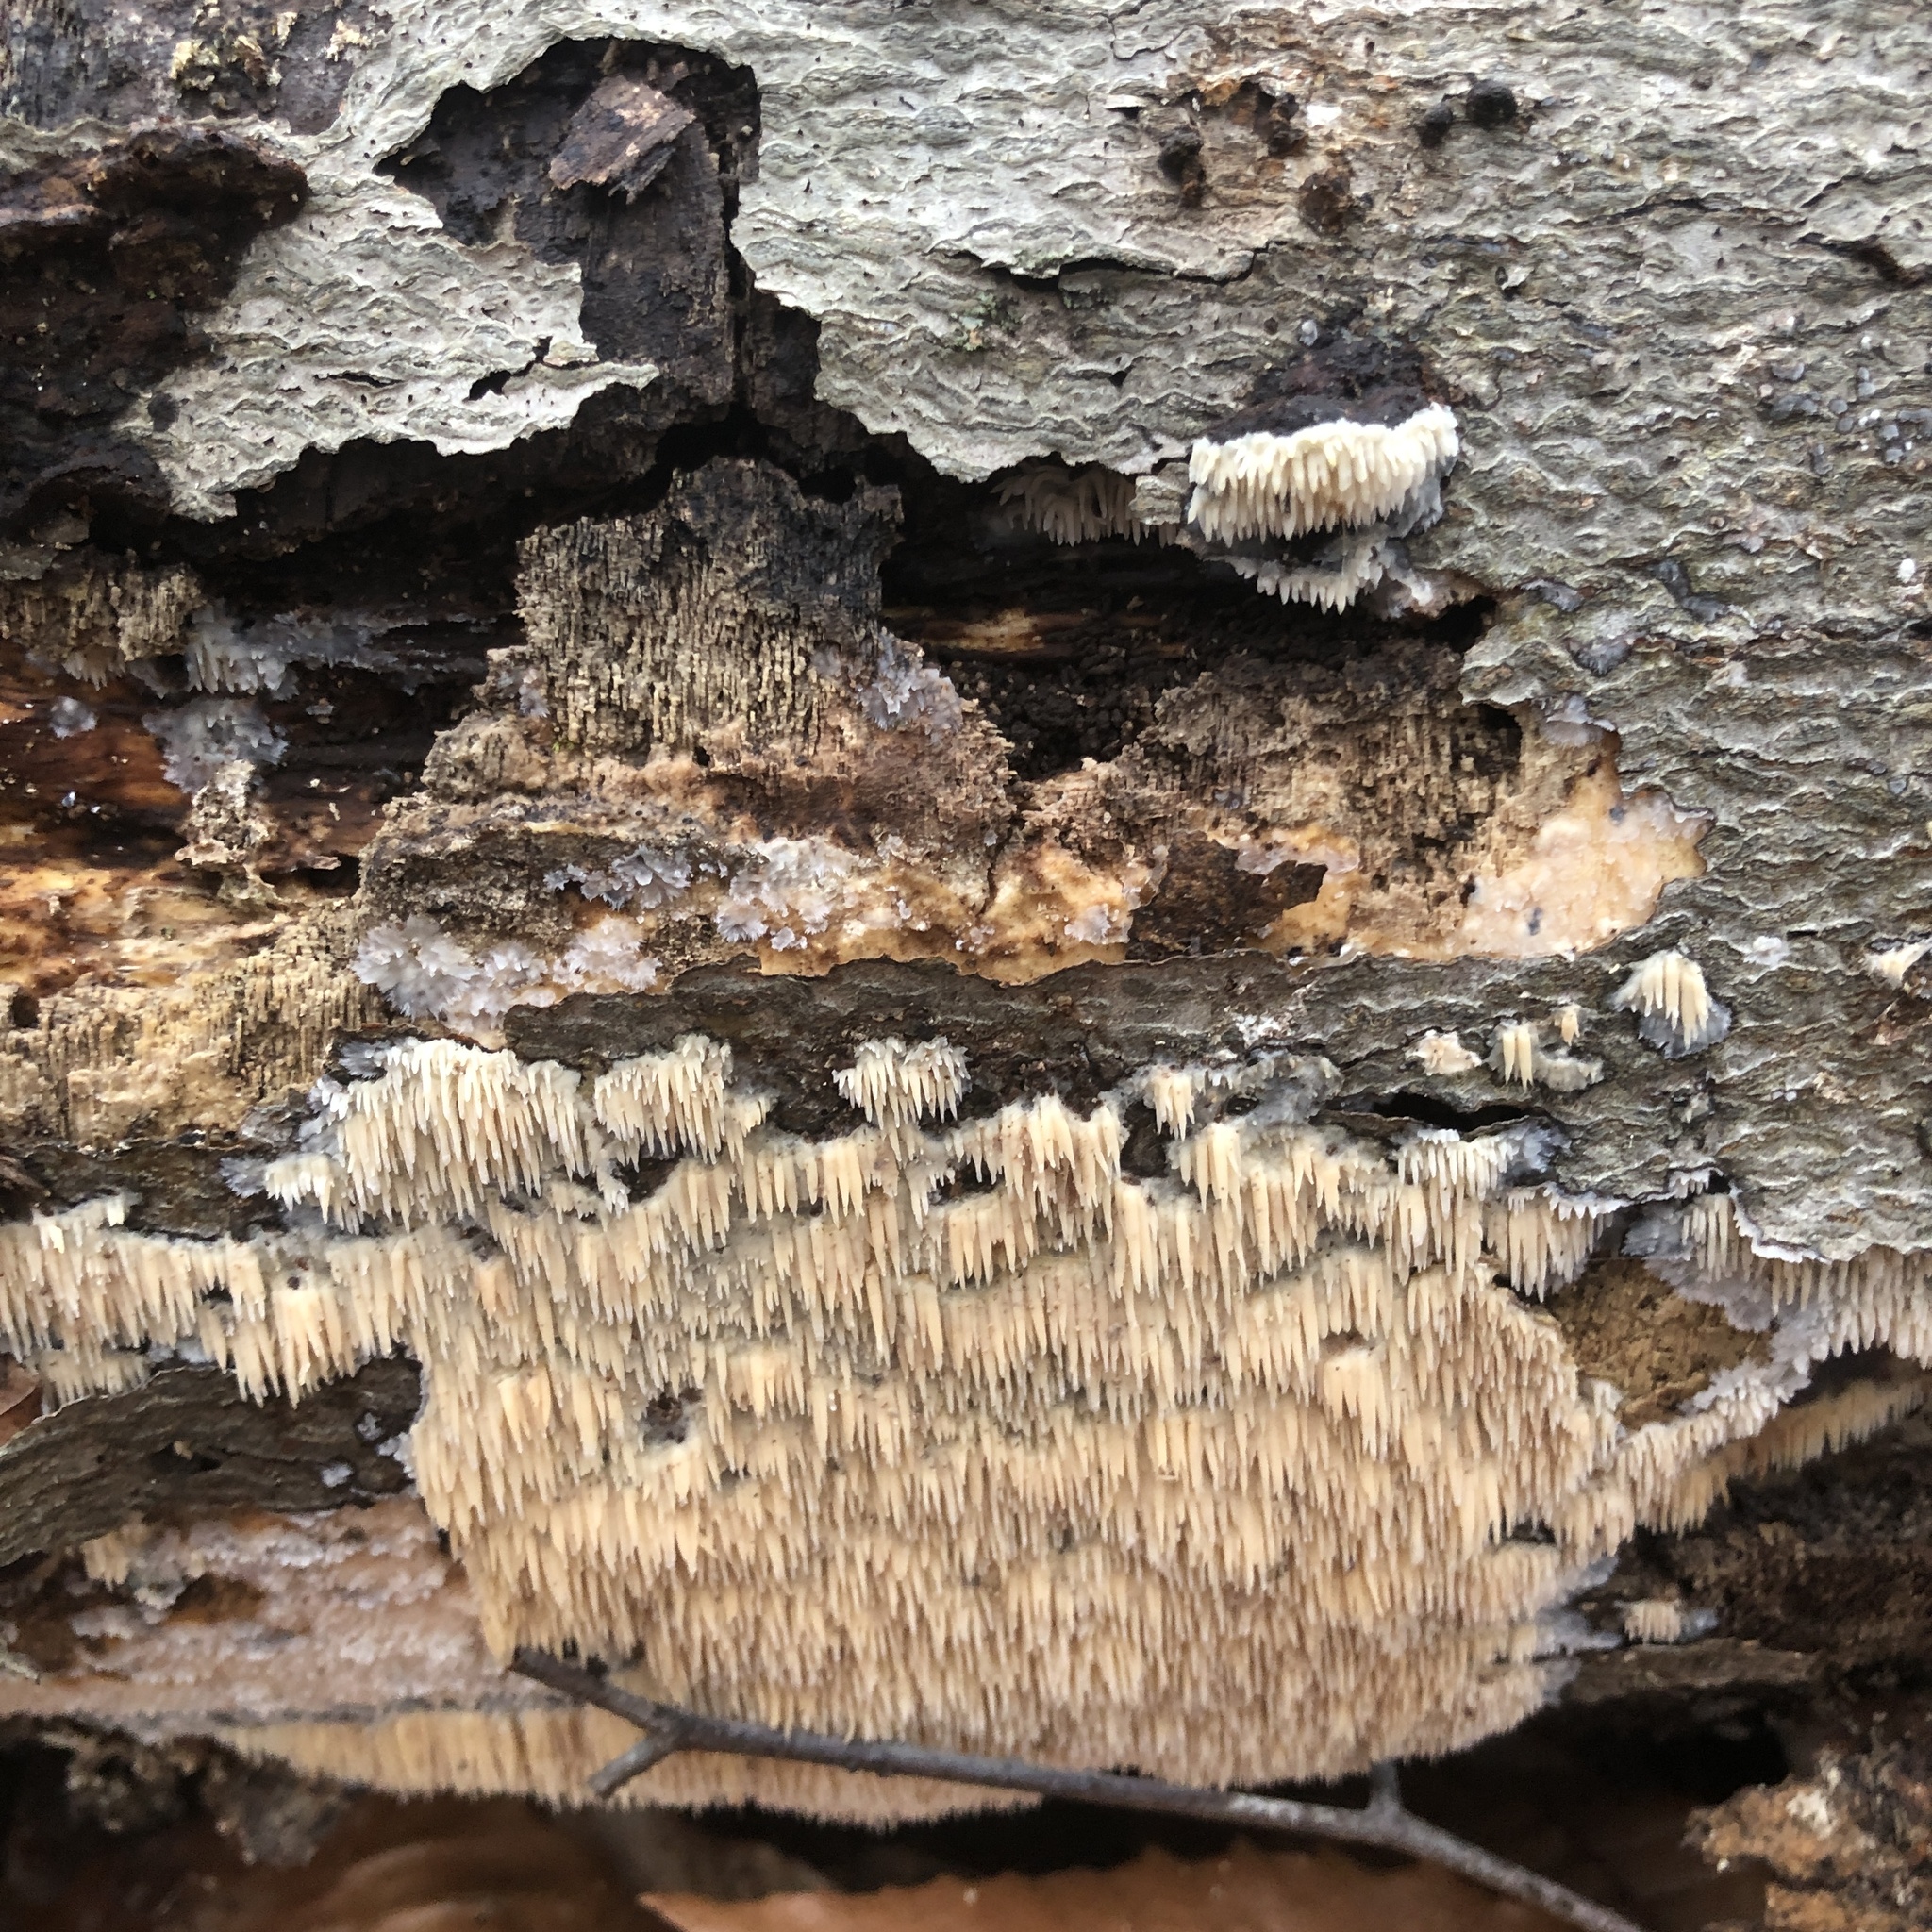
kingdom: Fungi
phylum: Basidiomycota
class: Agaricomycetes
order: Agaricales
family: Radulomycetaceae
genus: Radulomyces
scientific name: Radulomyces copelandii
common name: Asian beauty
